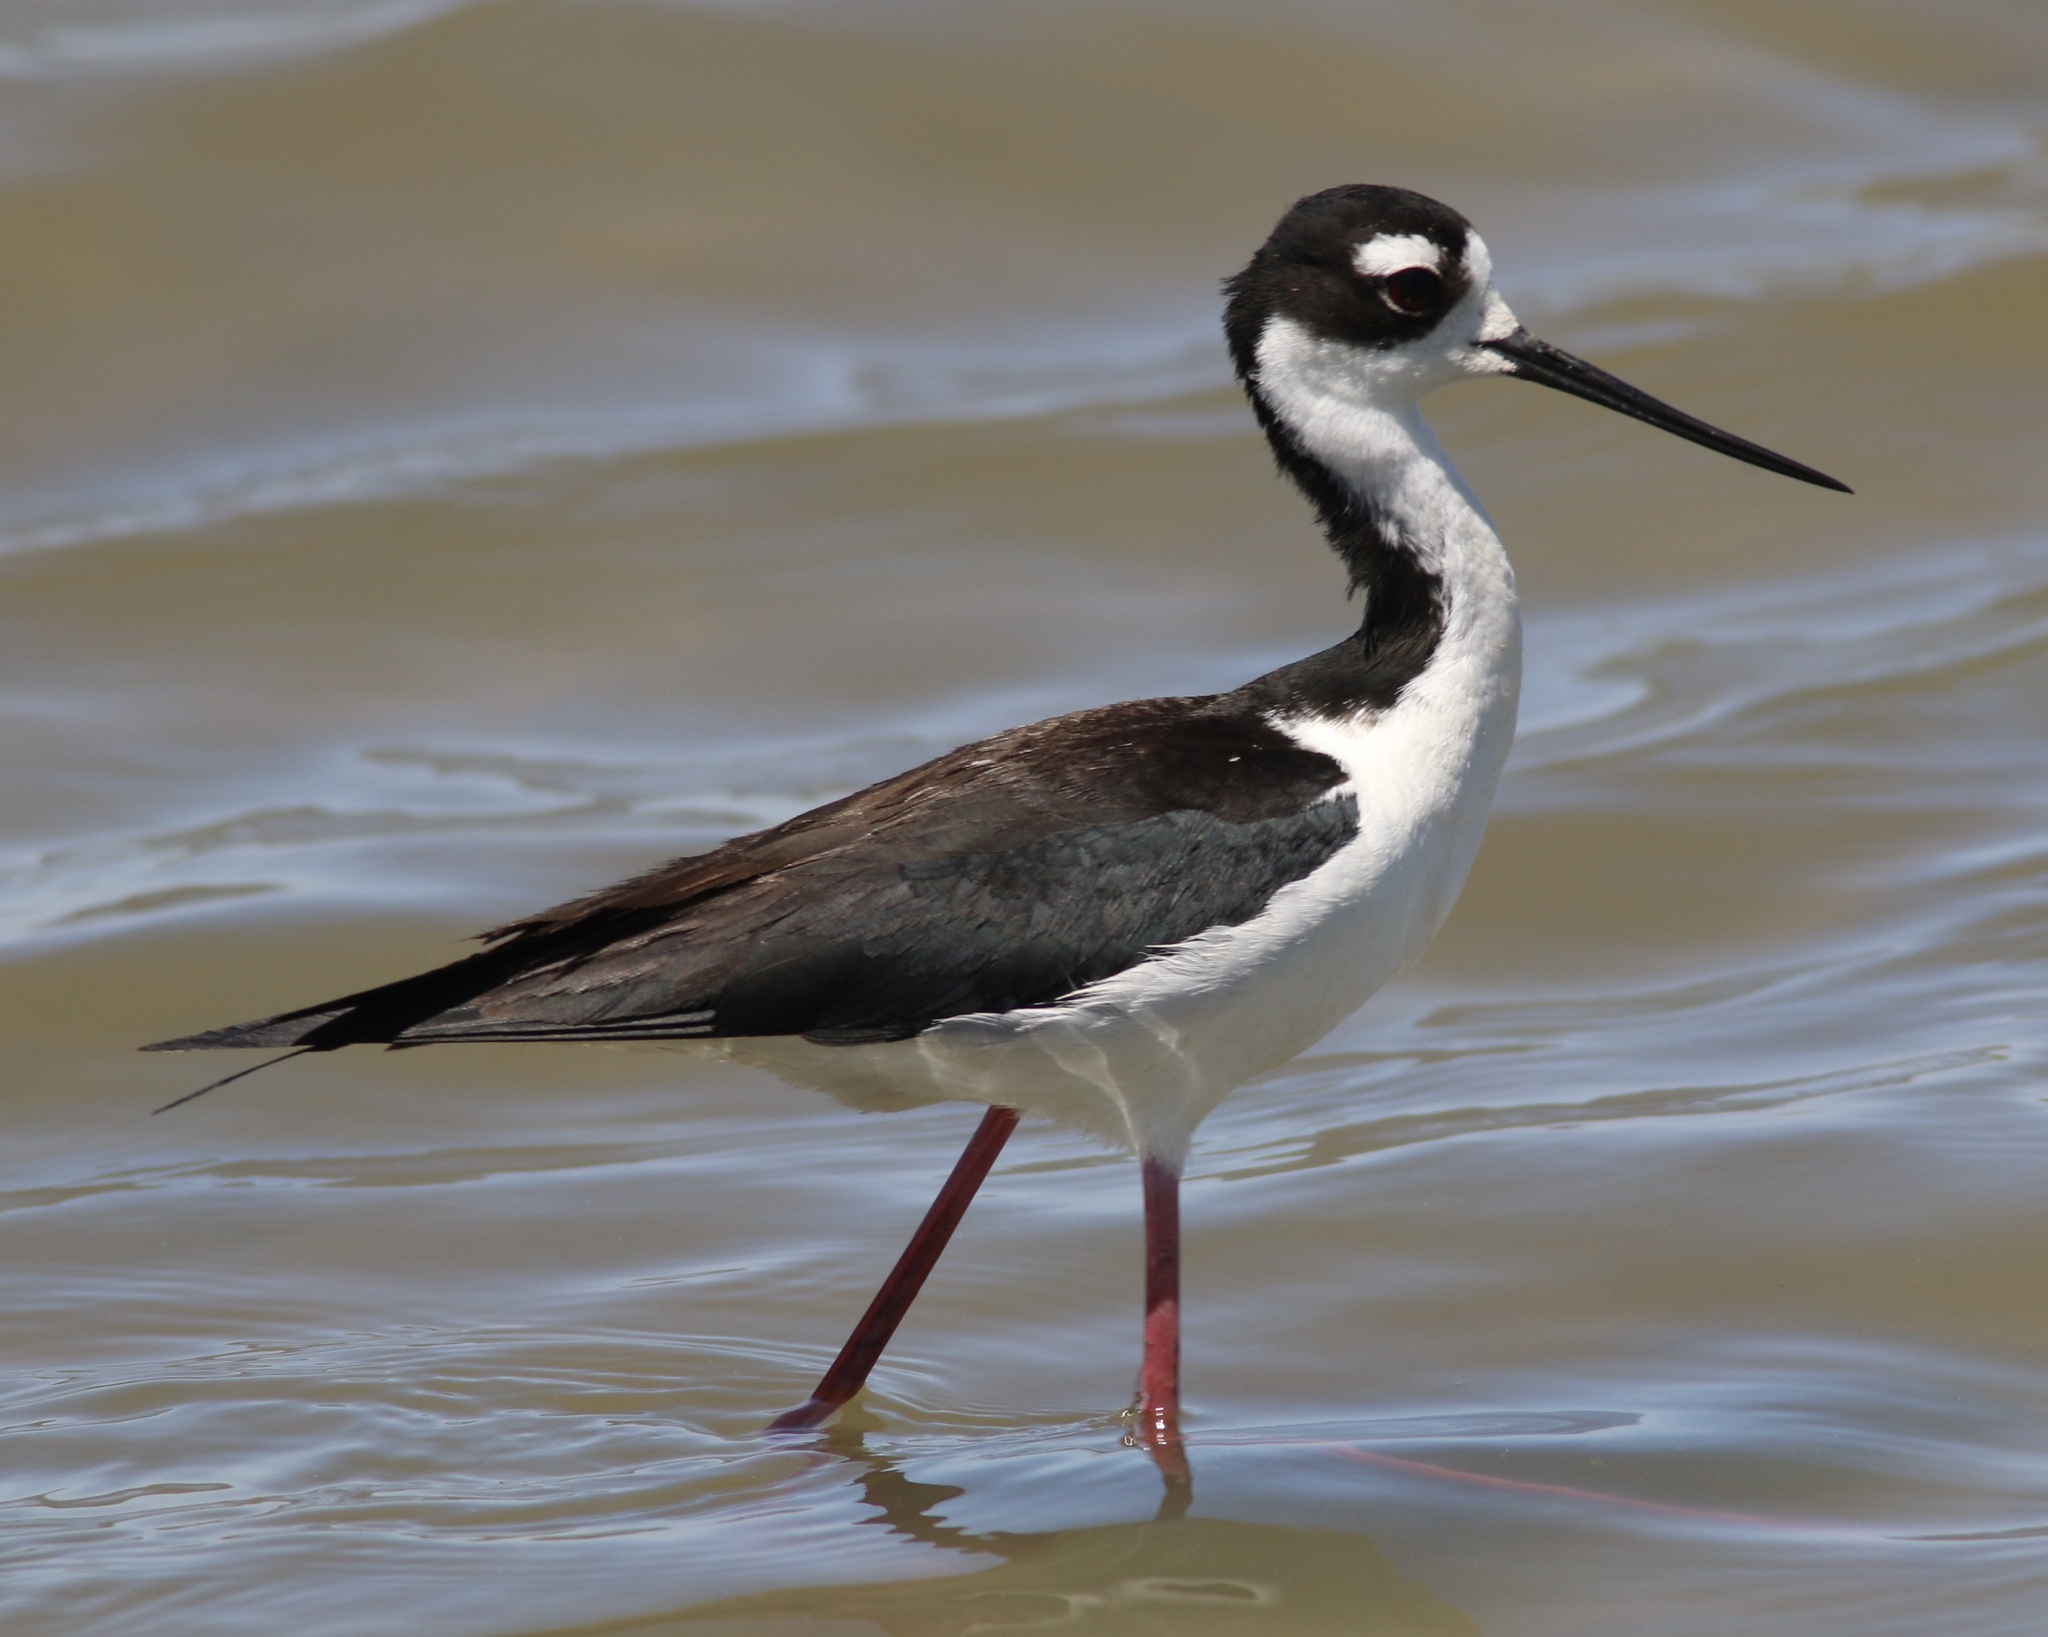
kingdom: Animalia
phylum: Chordata
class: Aves
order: Charadriiformes
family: Recurvirostridae
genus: Himantopus
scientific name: Himantopus mexicanus
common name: Black-necked stilt
